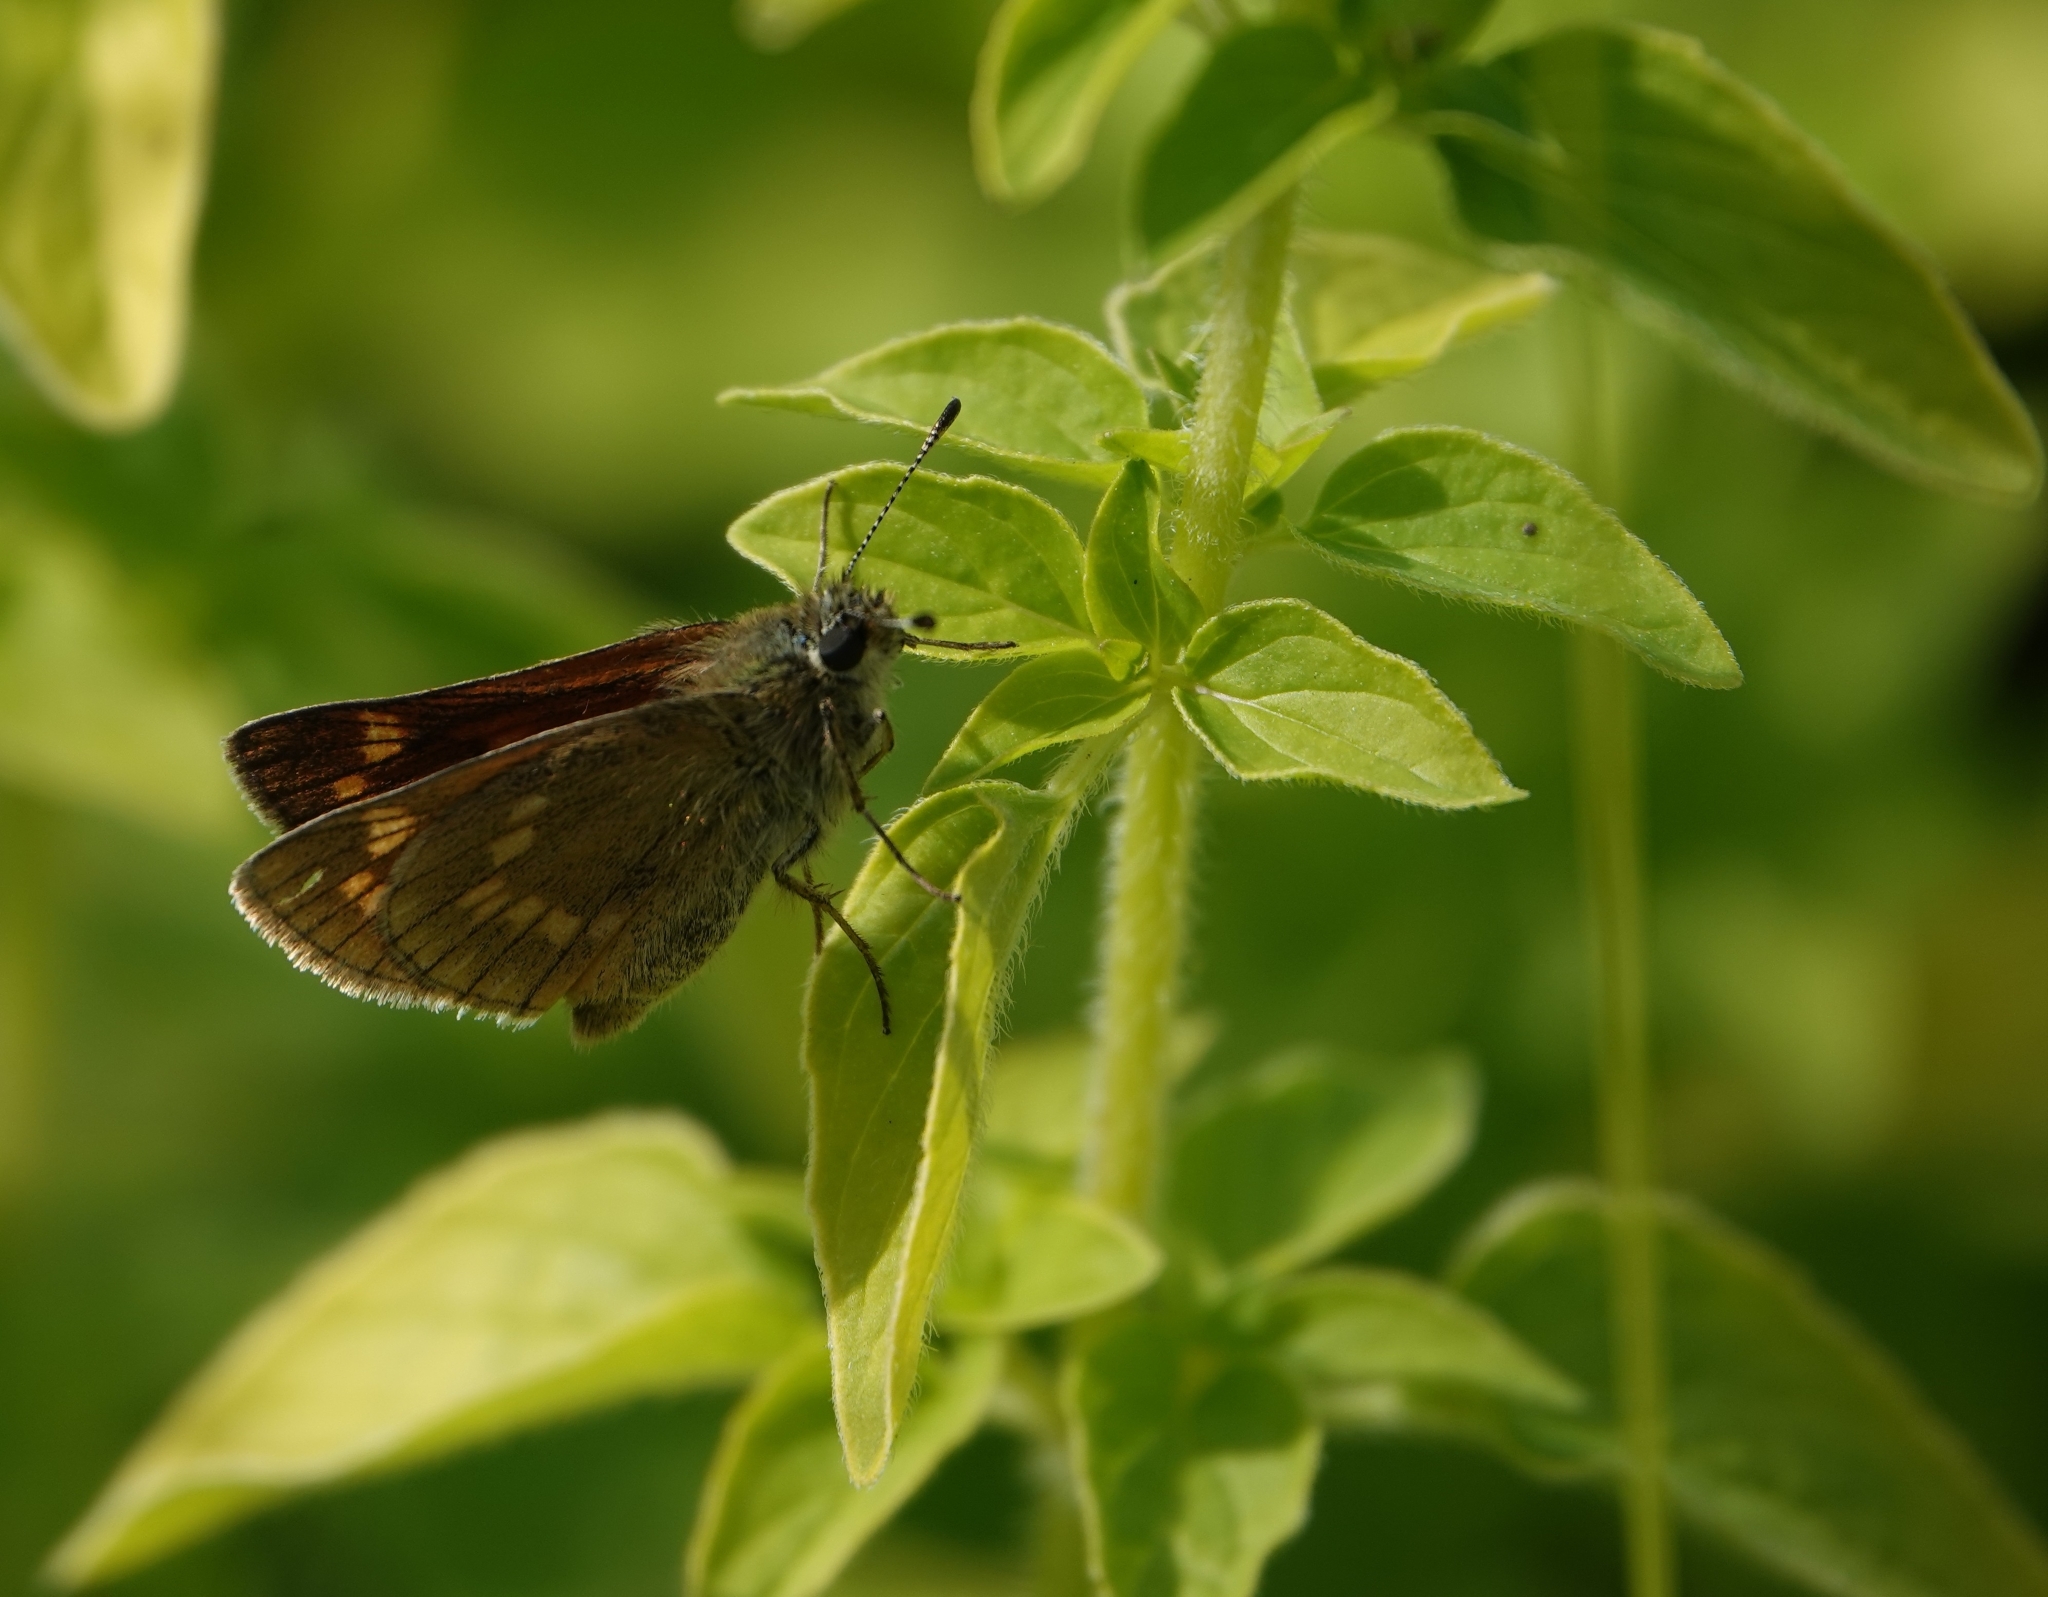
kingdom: Animalia
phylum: Arthropoda
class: Insecta
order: Lepidoptera
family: Hesperiidae
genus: Ochlodes
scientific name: Ochlodes venata
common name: Large skipper
